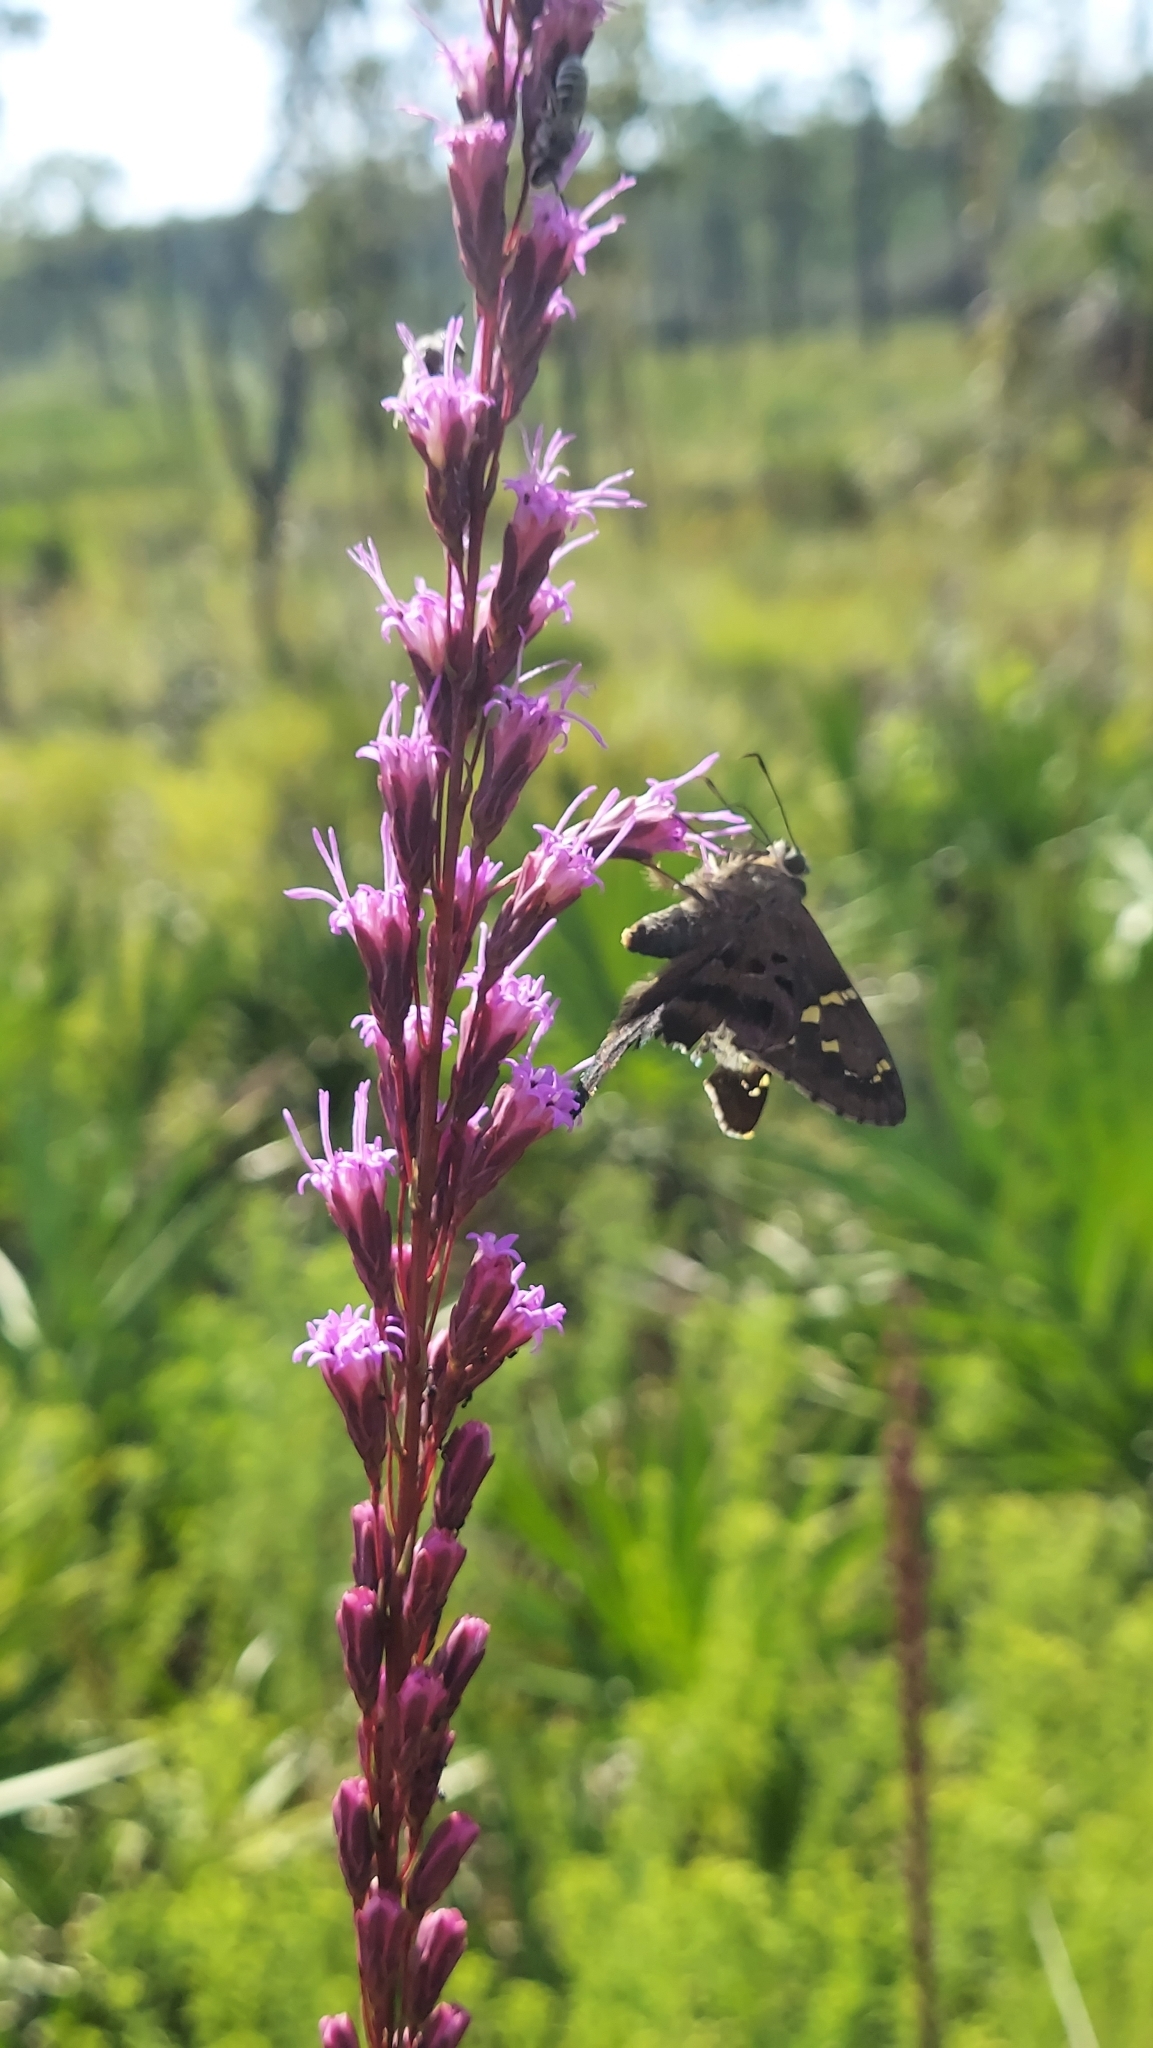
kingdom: Animalia
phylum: Arthropoda
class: Insecta
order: Lepidoptera
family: Hesperiidae
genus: Urbanus
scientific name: Urbanus proteus
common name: Long-tailed skipper
